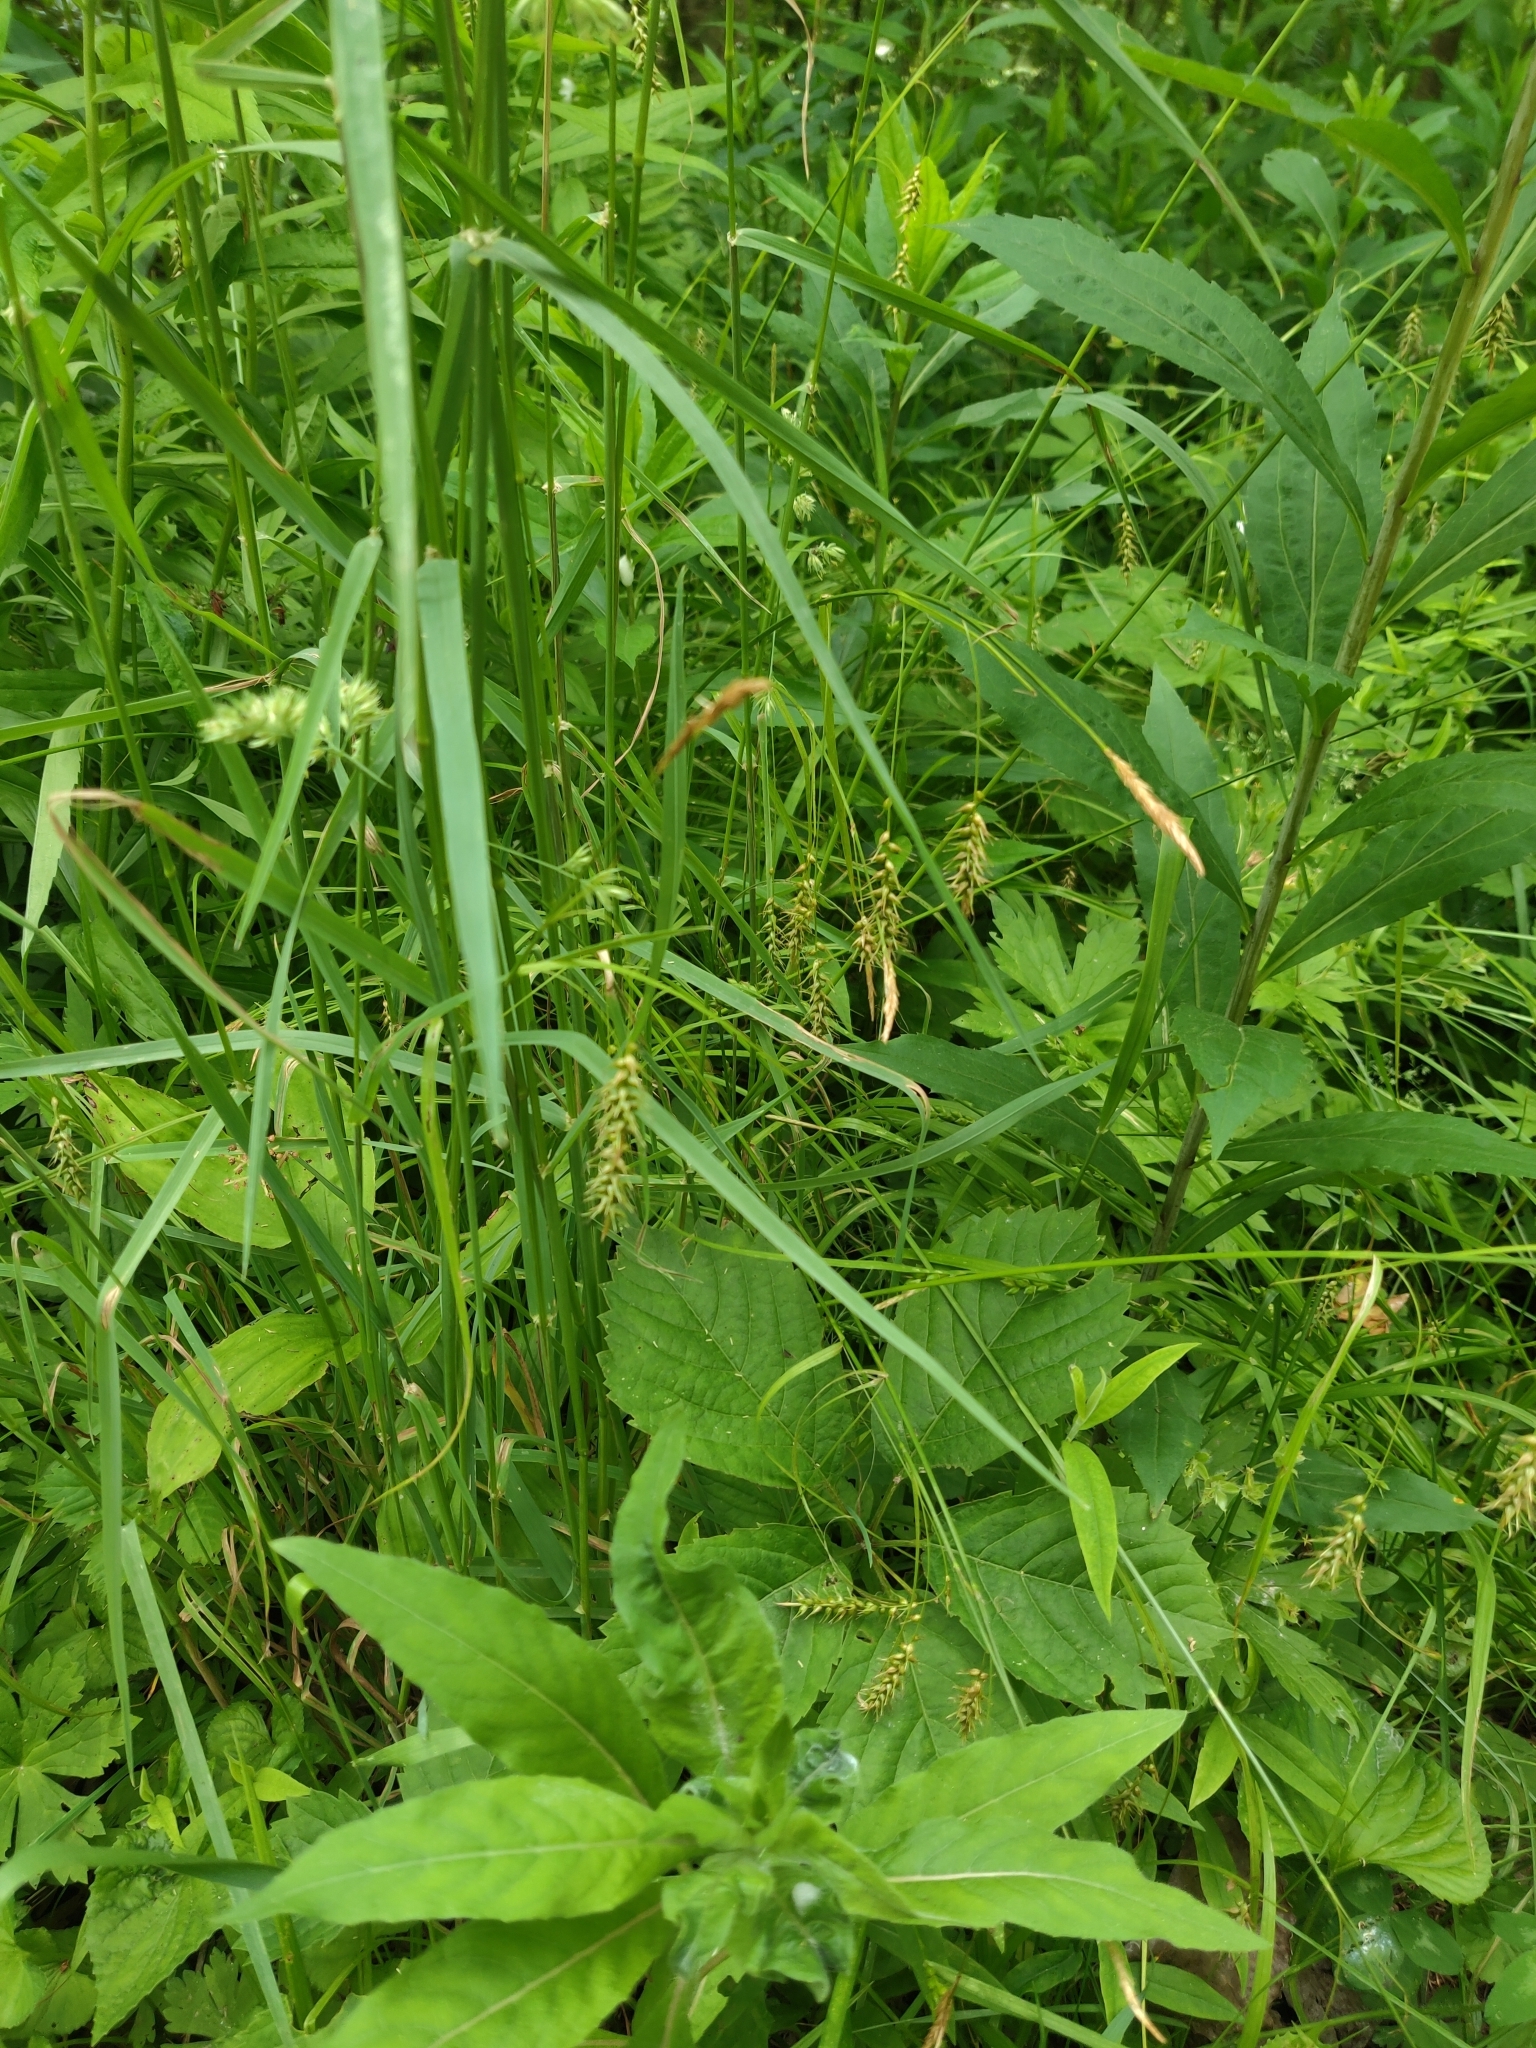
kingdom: Plantae
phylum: Tracheophyta
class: Liliopsida
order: Poales
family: Cyperaceae
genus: Carex
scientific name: Carex sprengelii
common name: Long-beaked sedge
